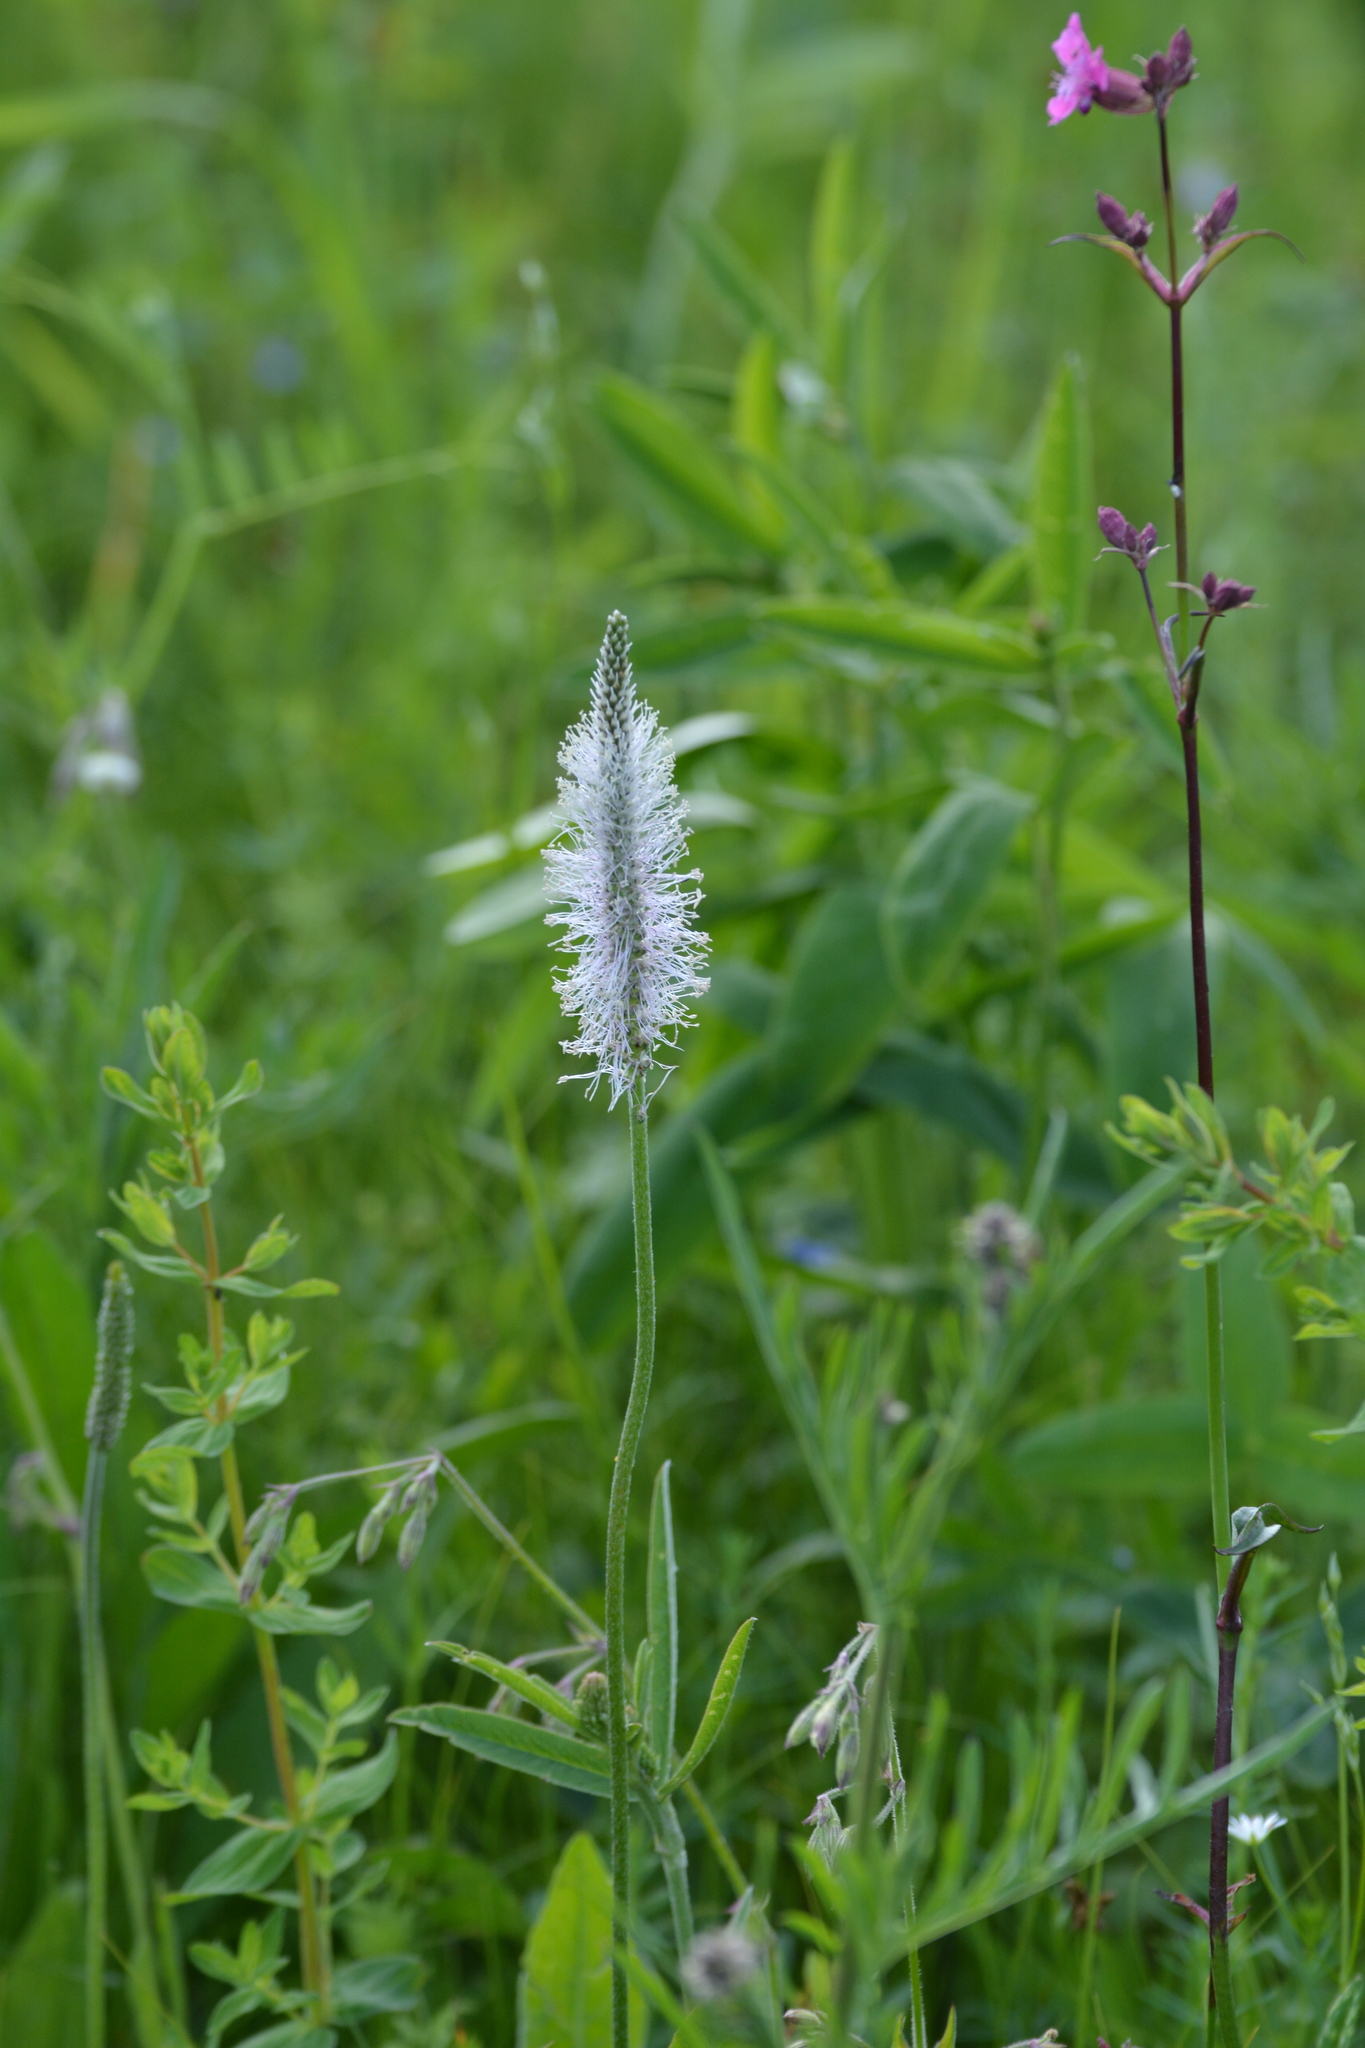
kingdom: Plantae
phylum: Tracheophyta
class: Magnoliopsida
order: Lamiales
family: Plantaginaceae
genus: Plantago
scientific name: Plantago media
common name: Hoary plantain
